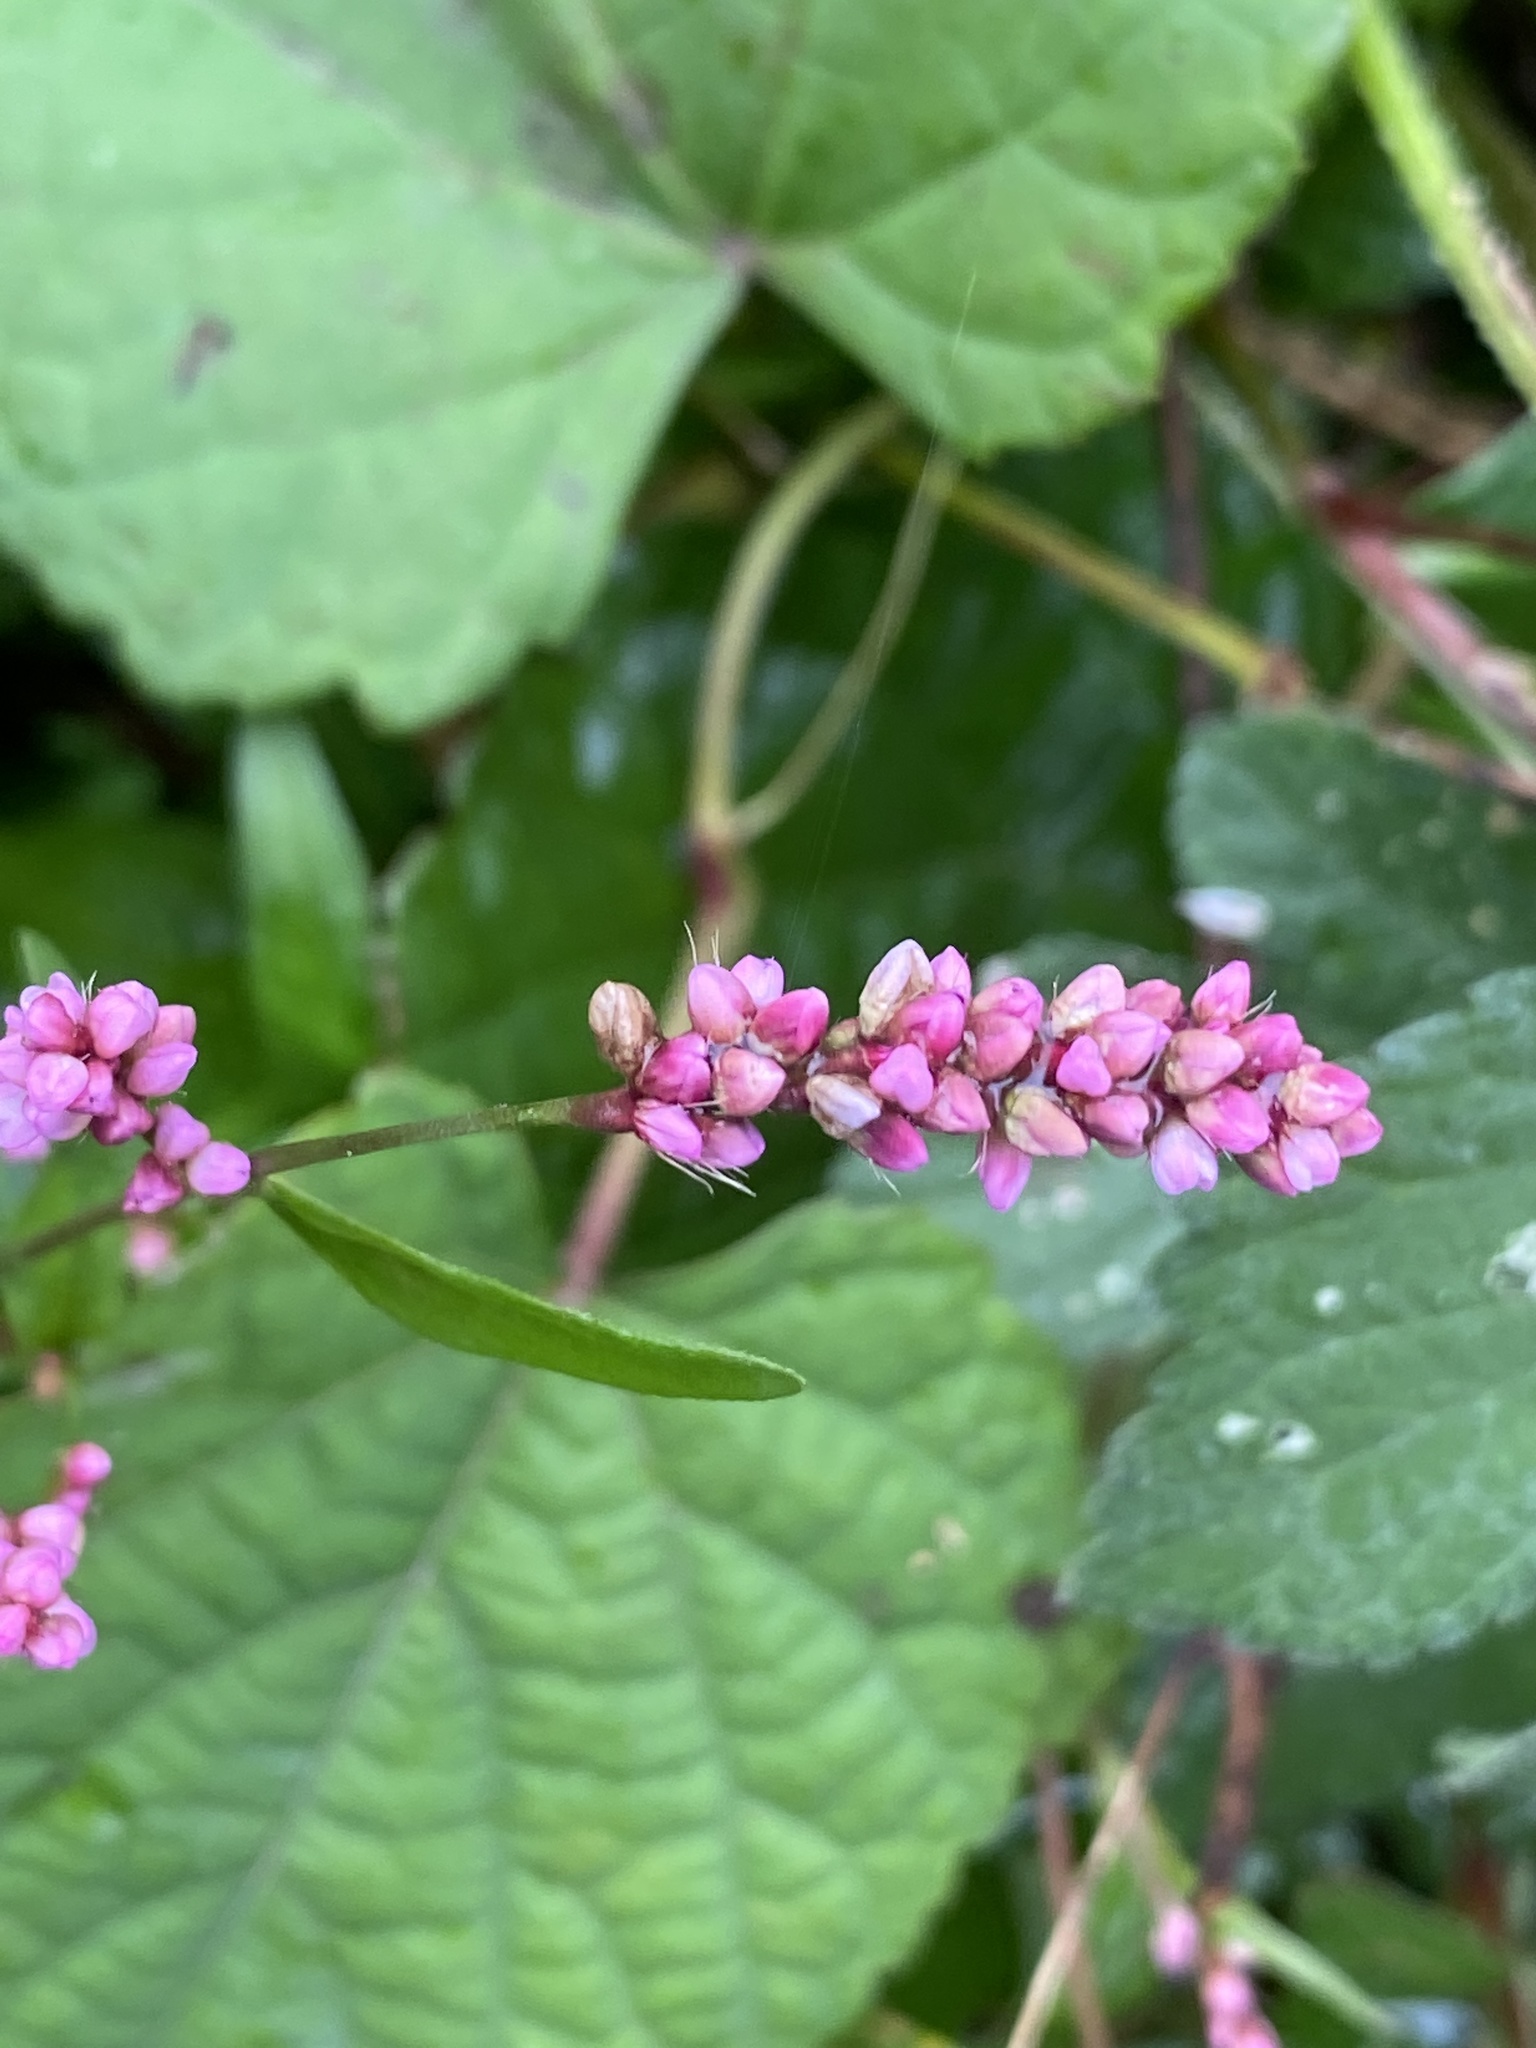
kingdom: Plantae
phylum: Tracheophyta
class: Magnoliopsida
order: Caryophyllales
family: Polygonaceae
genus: Persicaria
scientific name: Persicaria longiseta
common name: Bristly lady's-thumb
